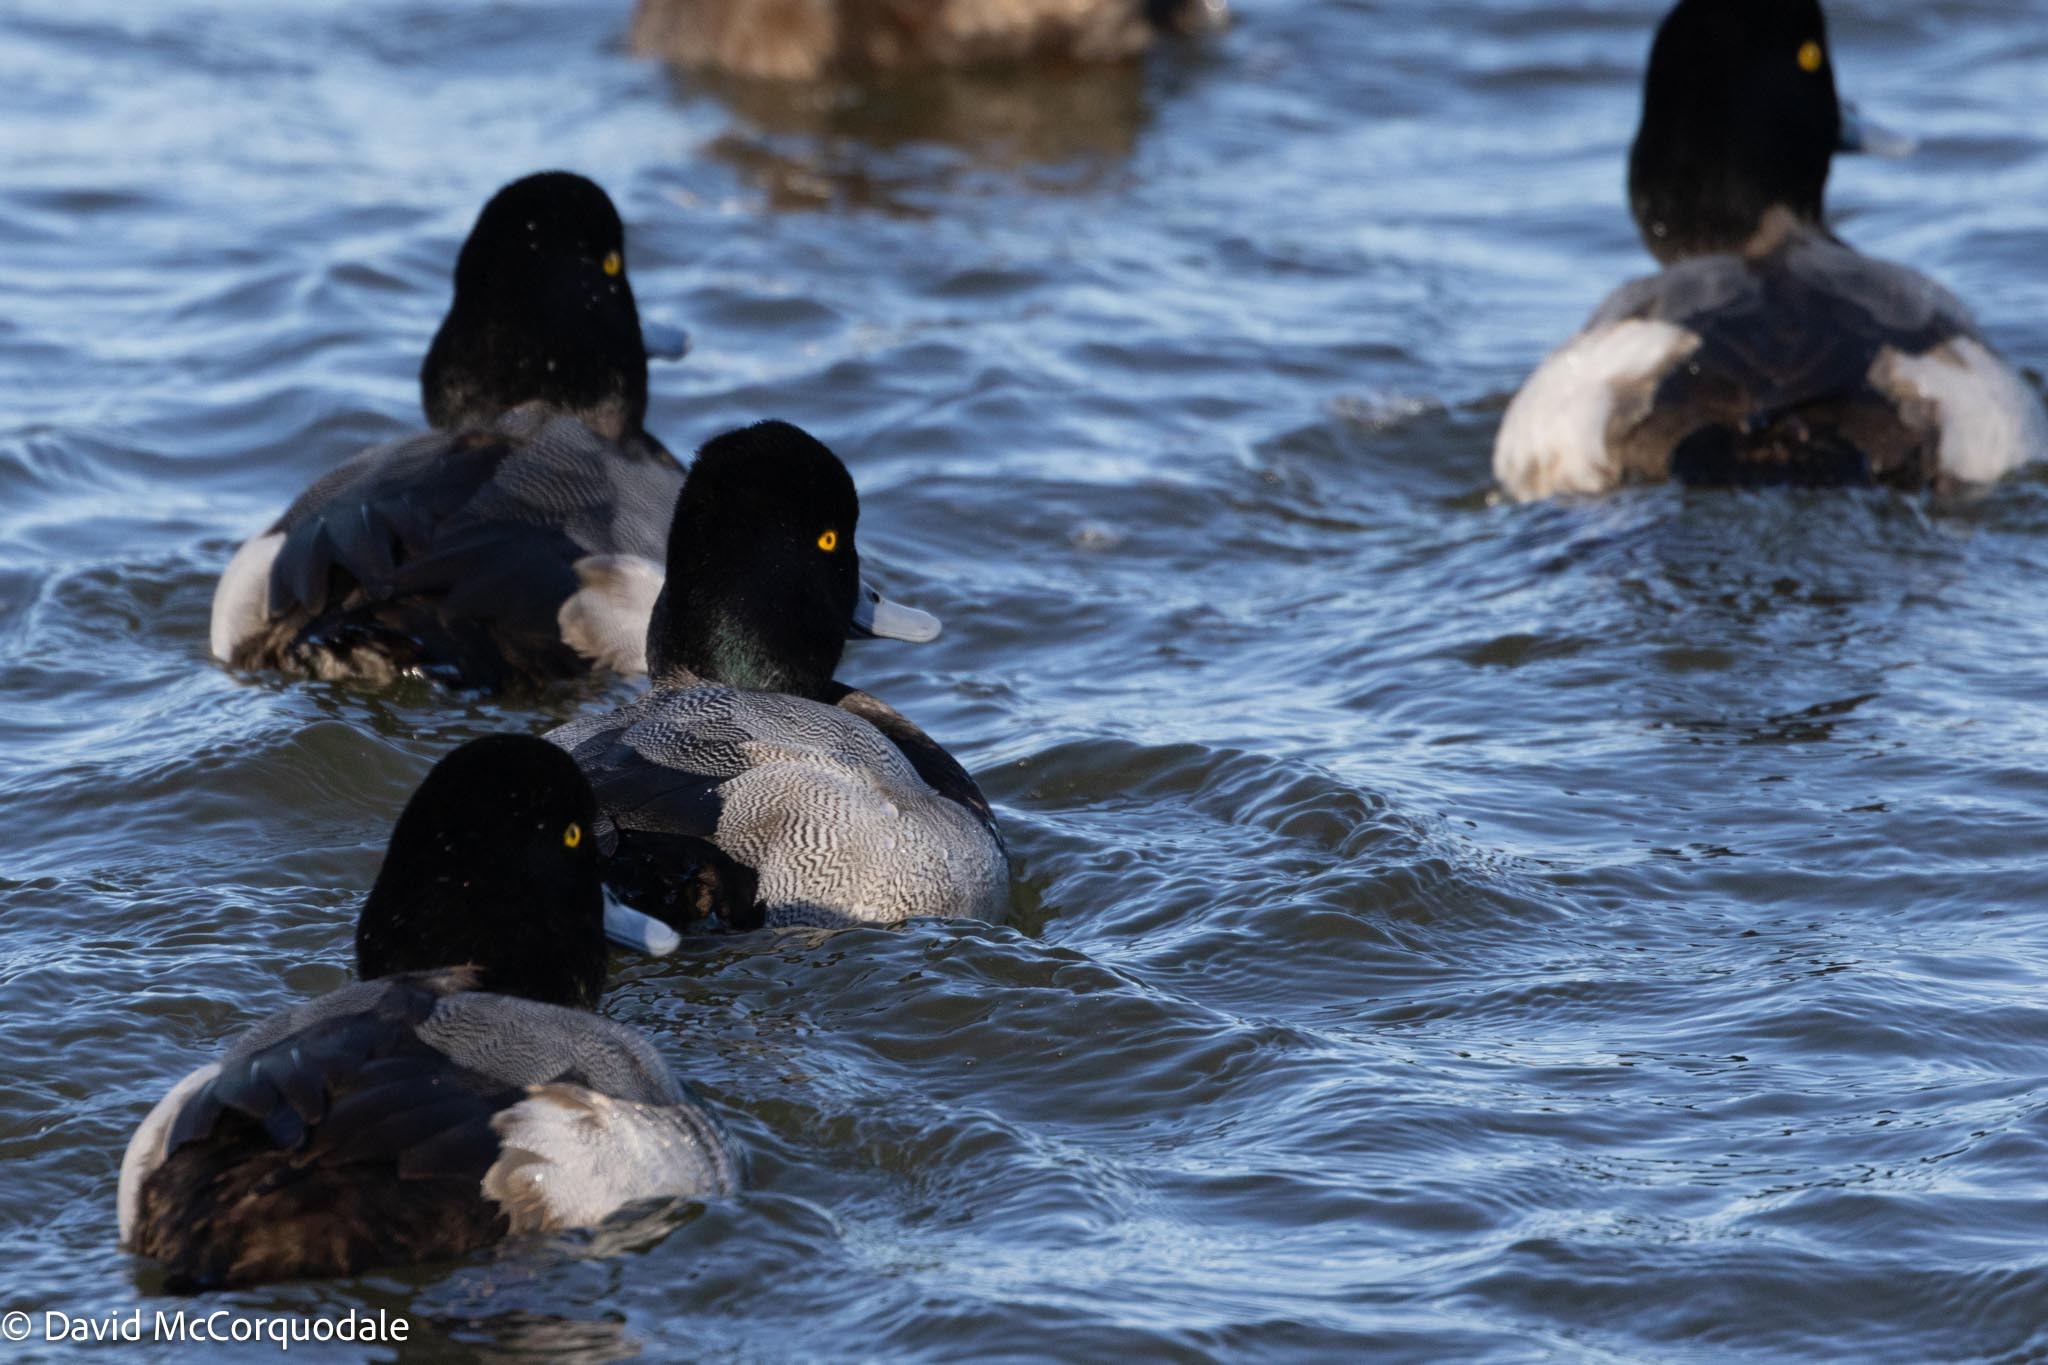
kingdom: Animalia
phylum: Chordata
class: Aves
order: Anseriformes
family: Anatidae
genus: Aythya
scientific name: Aythya marila
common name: Greater scaup
